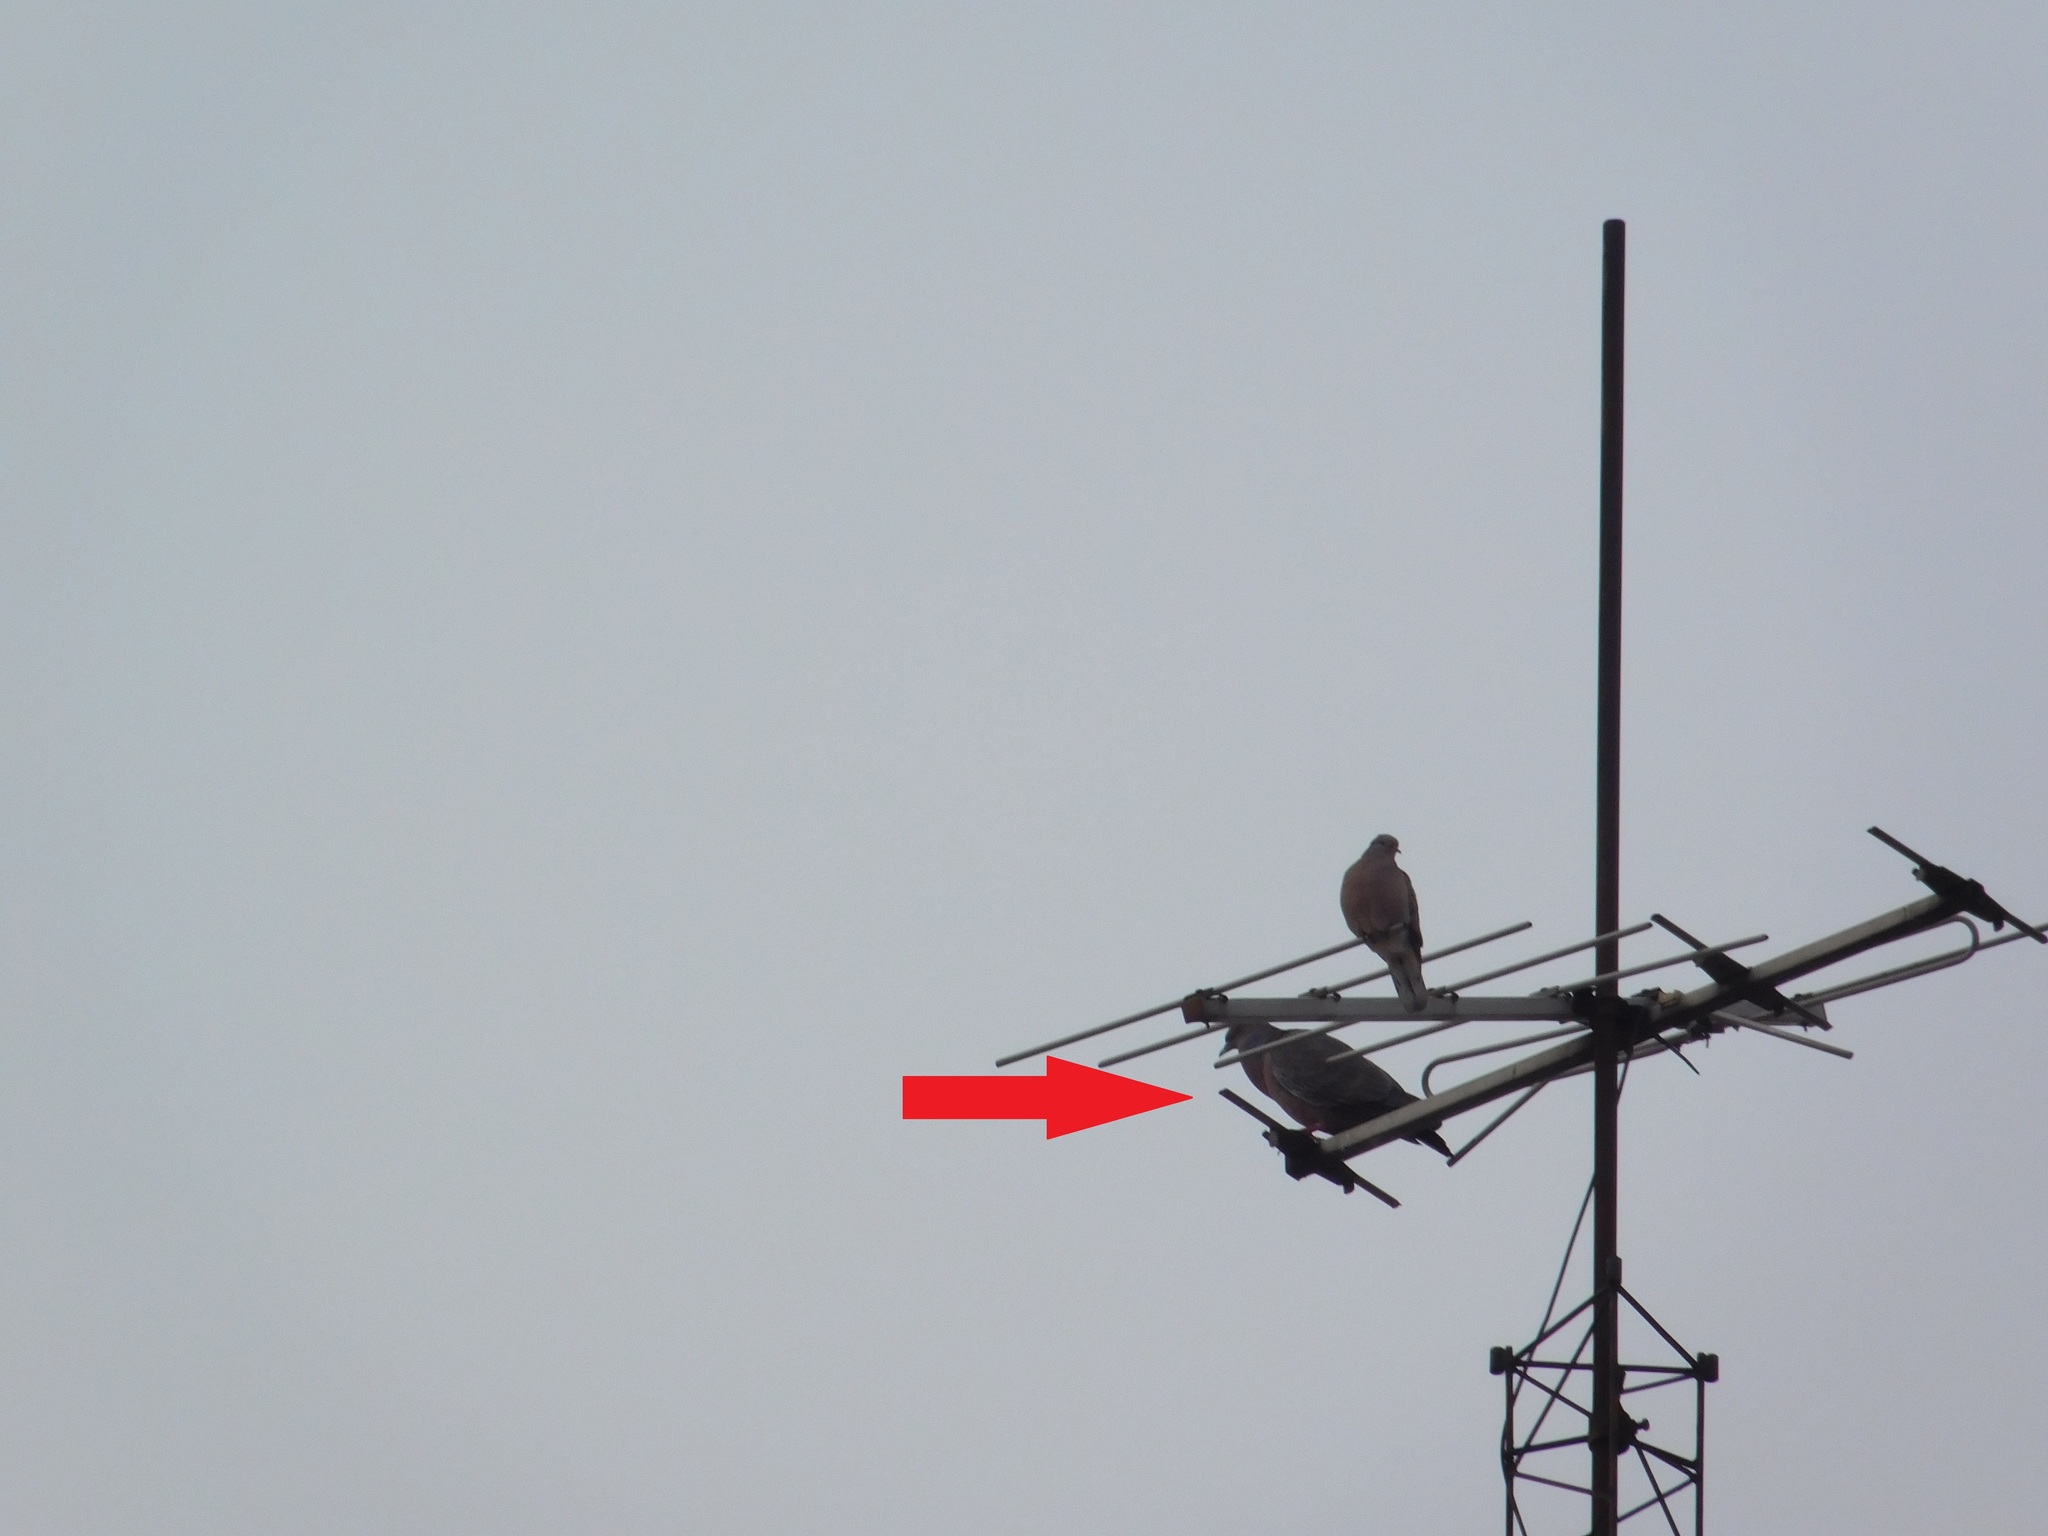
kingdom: Animalia
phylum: Chordata
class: Aves
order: Columbiformes
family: Columbidae
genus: Patagioenas
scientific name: Patagioenas picazuro
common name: Picazuro pigeon
